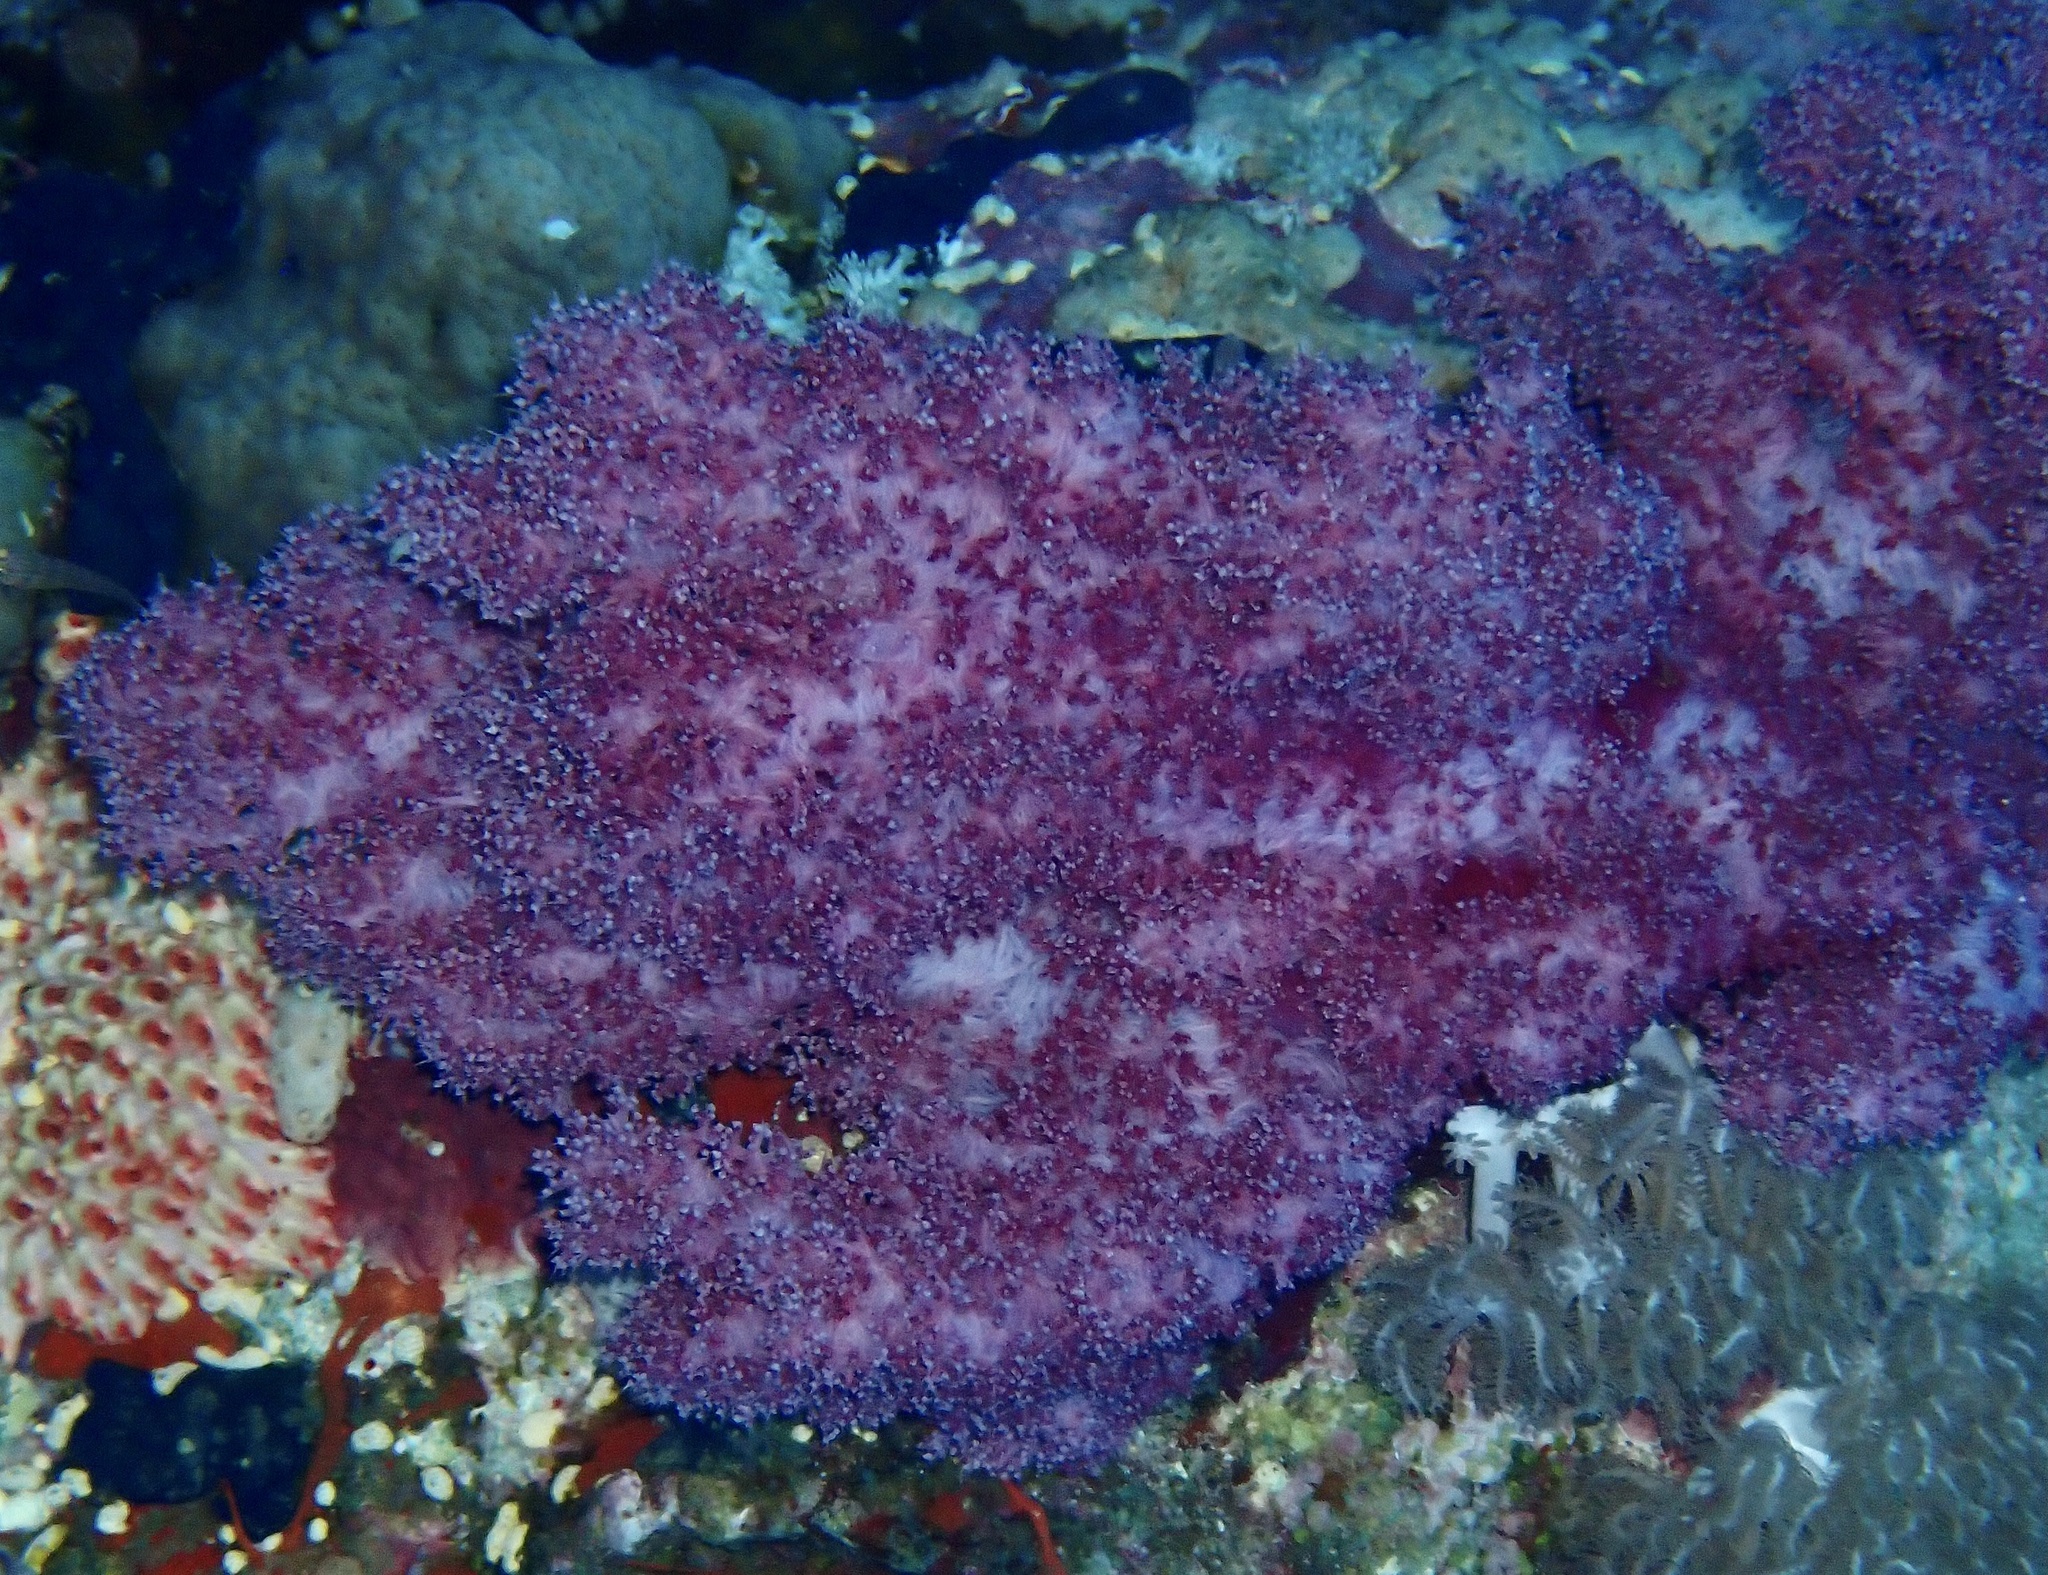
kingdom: Animalia
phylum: Cnidaria
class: Anthozoa
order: Malacalcyonacea
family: Nephtheidae
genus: Dendronephthya
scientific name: Dendronephthya hemprichi
